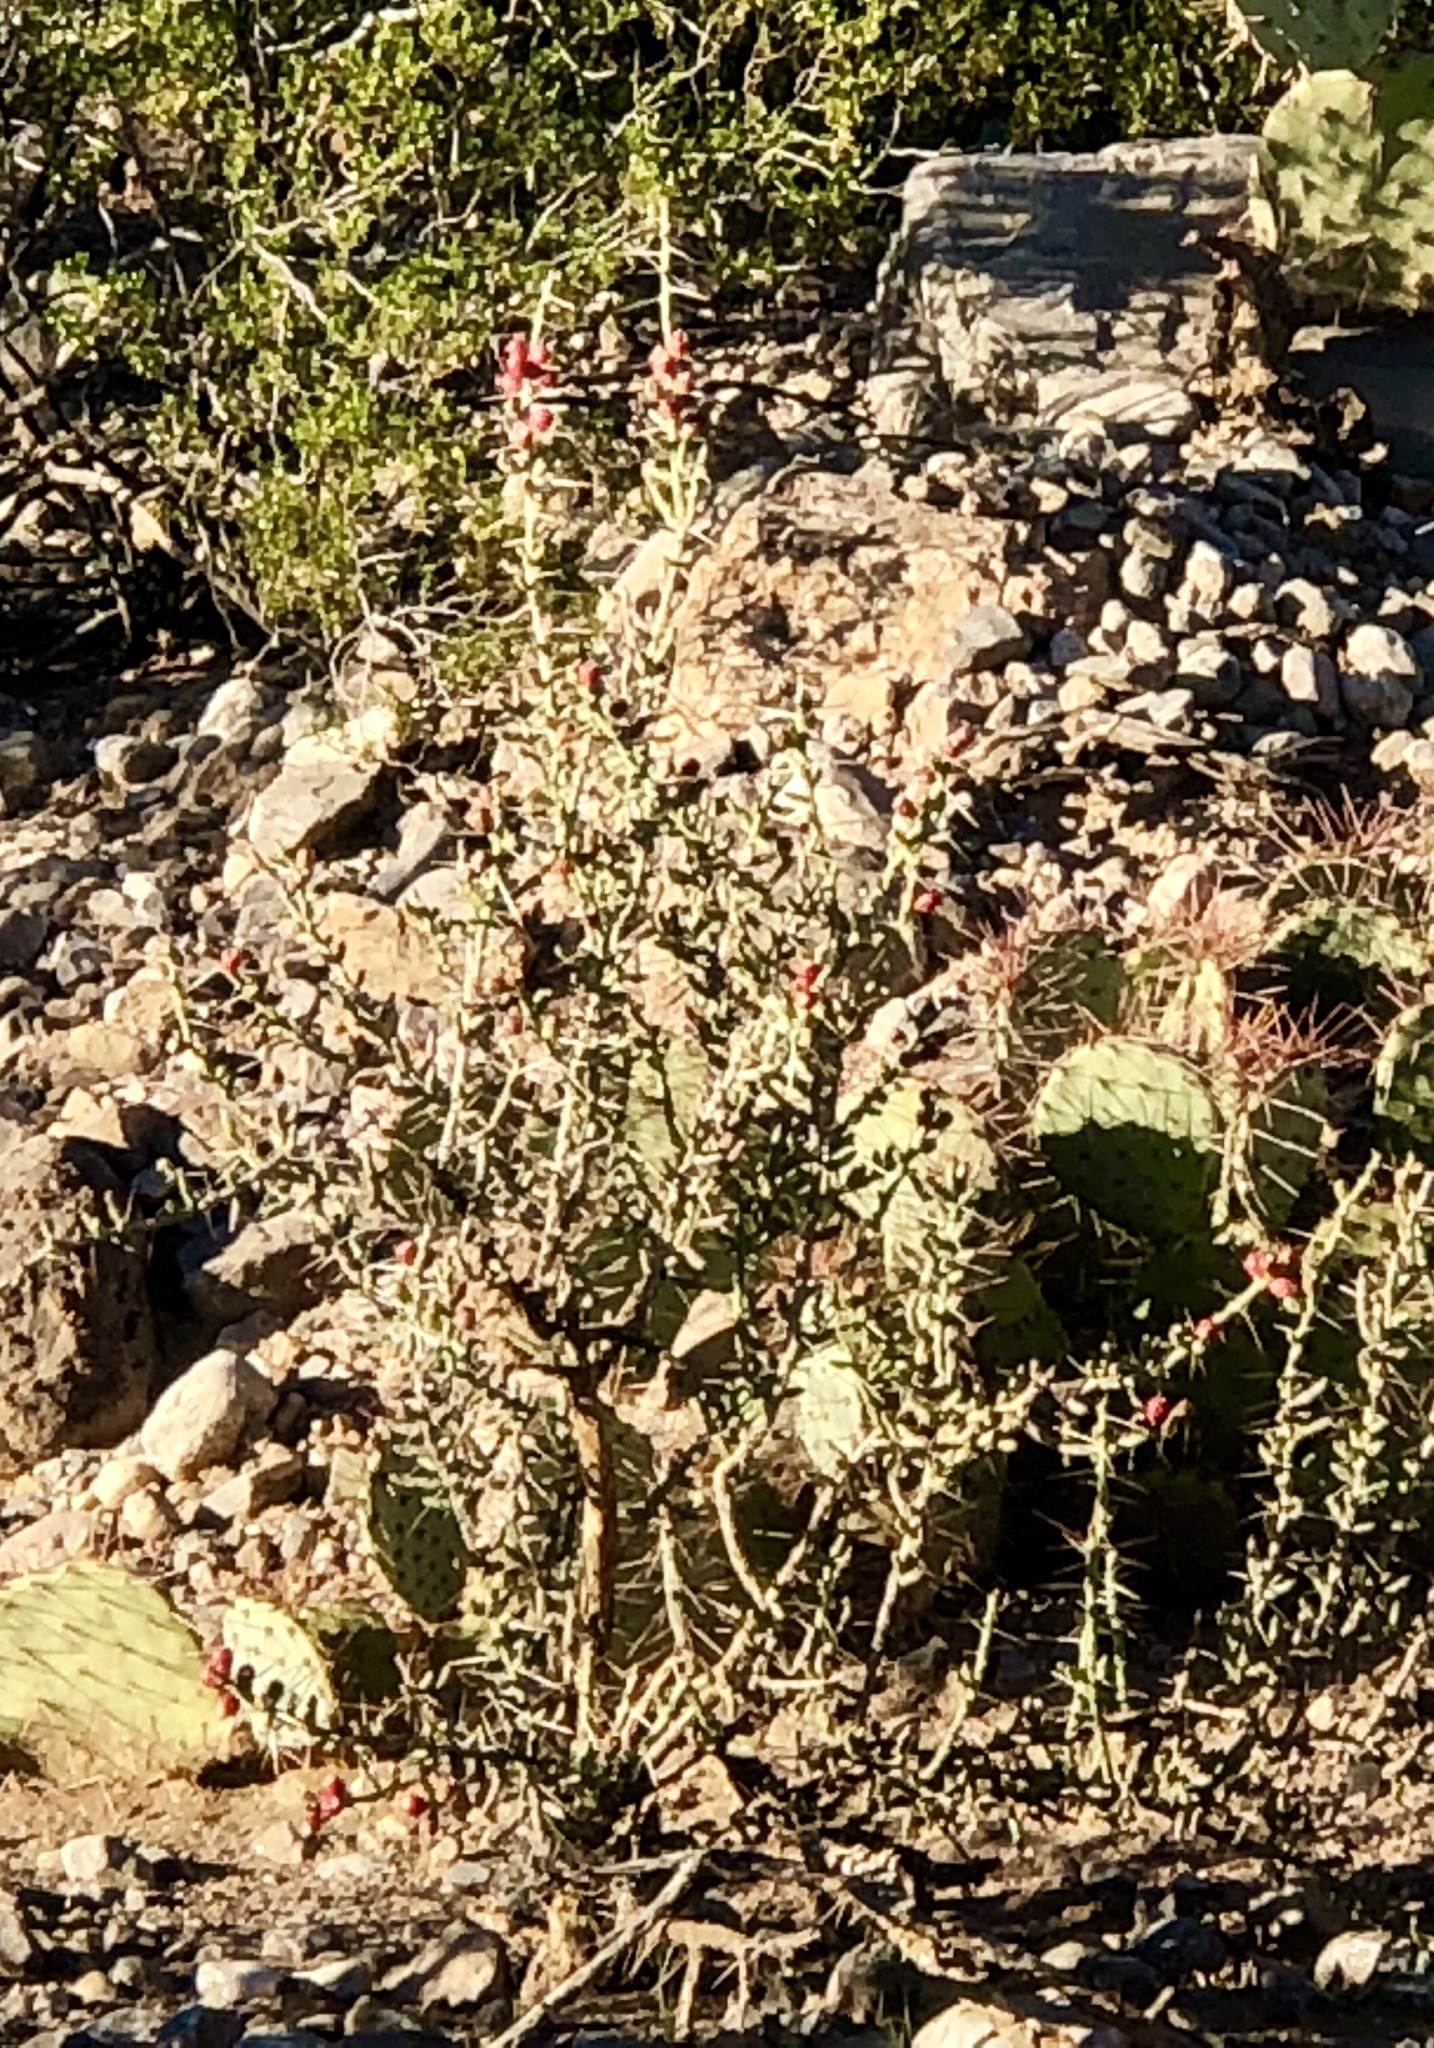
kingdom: Plantae
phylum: Tracheophyta
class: Magnoliopsida
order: Caryophyllales
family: Cactaceae
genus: Cylindropuntia
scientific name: Cylindropuntia leptocaulis
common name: Christmas cactus
